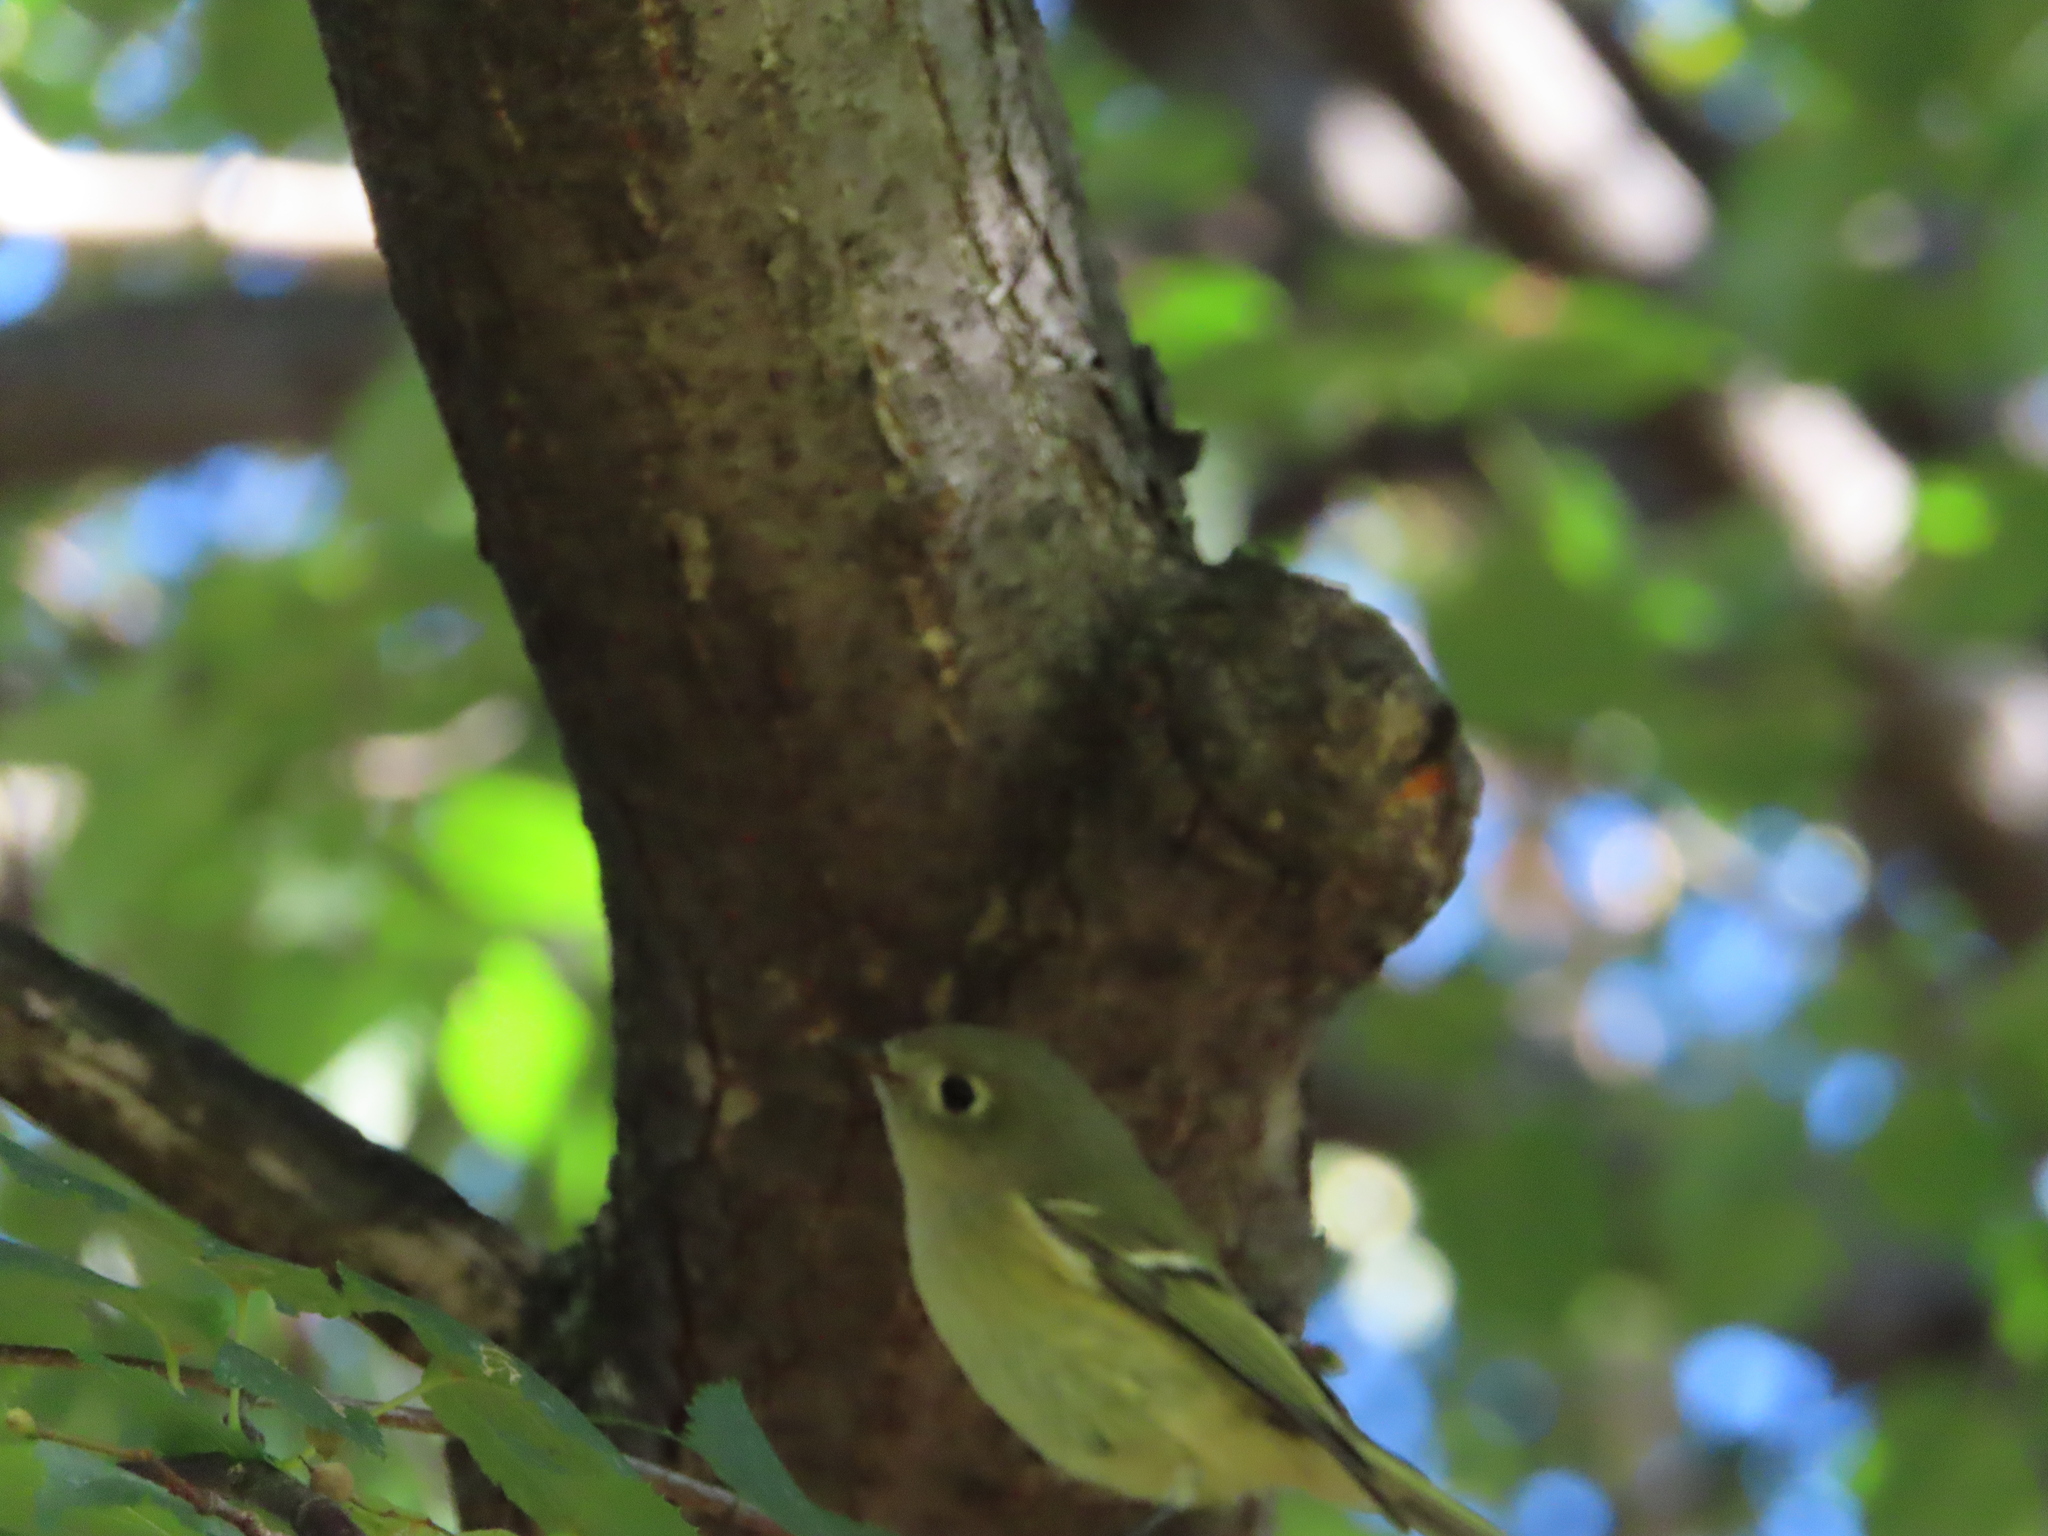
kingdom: Animalia
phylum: Chordata
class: Aves
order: Passeriformes
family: Regulidae
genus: Regulus
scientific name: Regulus calendula
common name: Ruby-crowned kinglet
